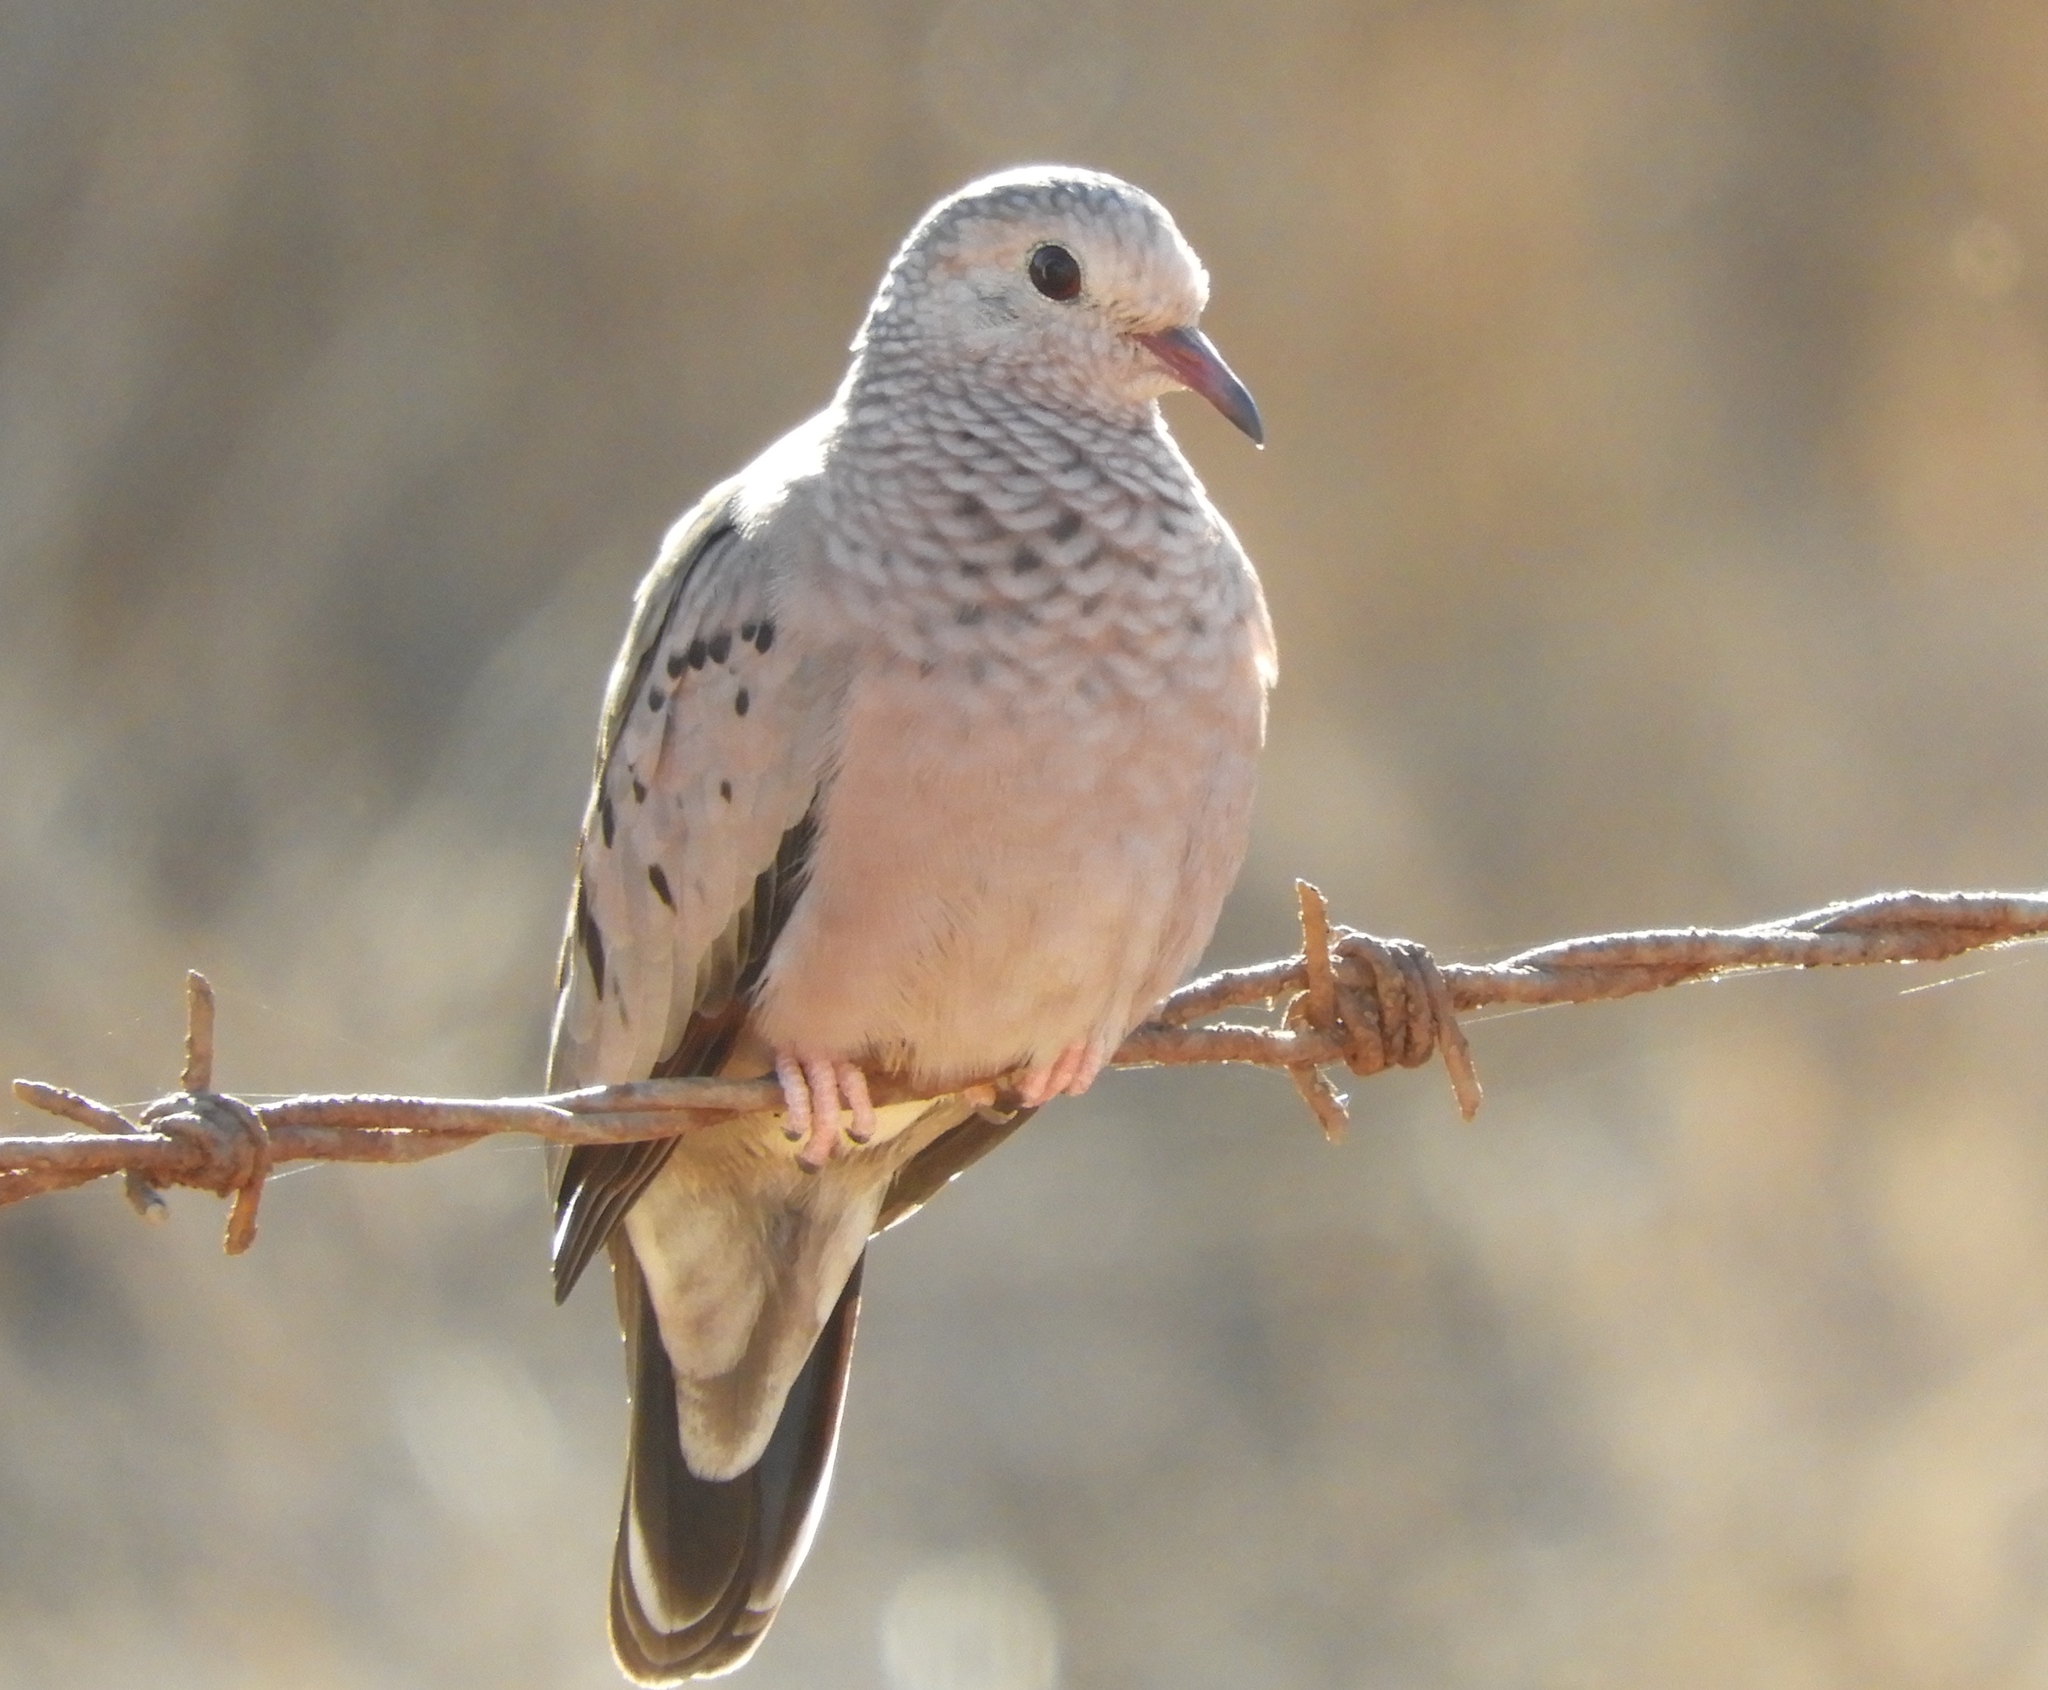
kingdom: Animalia
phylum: Chordata
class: Aves
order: Columbiformes
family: Columbidae
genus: Columbina
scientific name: Columbina passerina
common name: Common ground-dove
